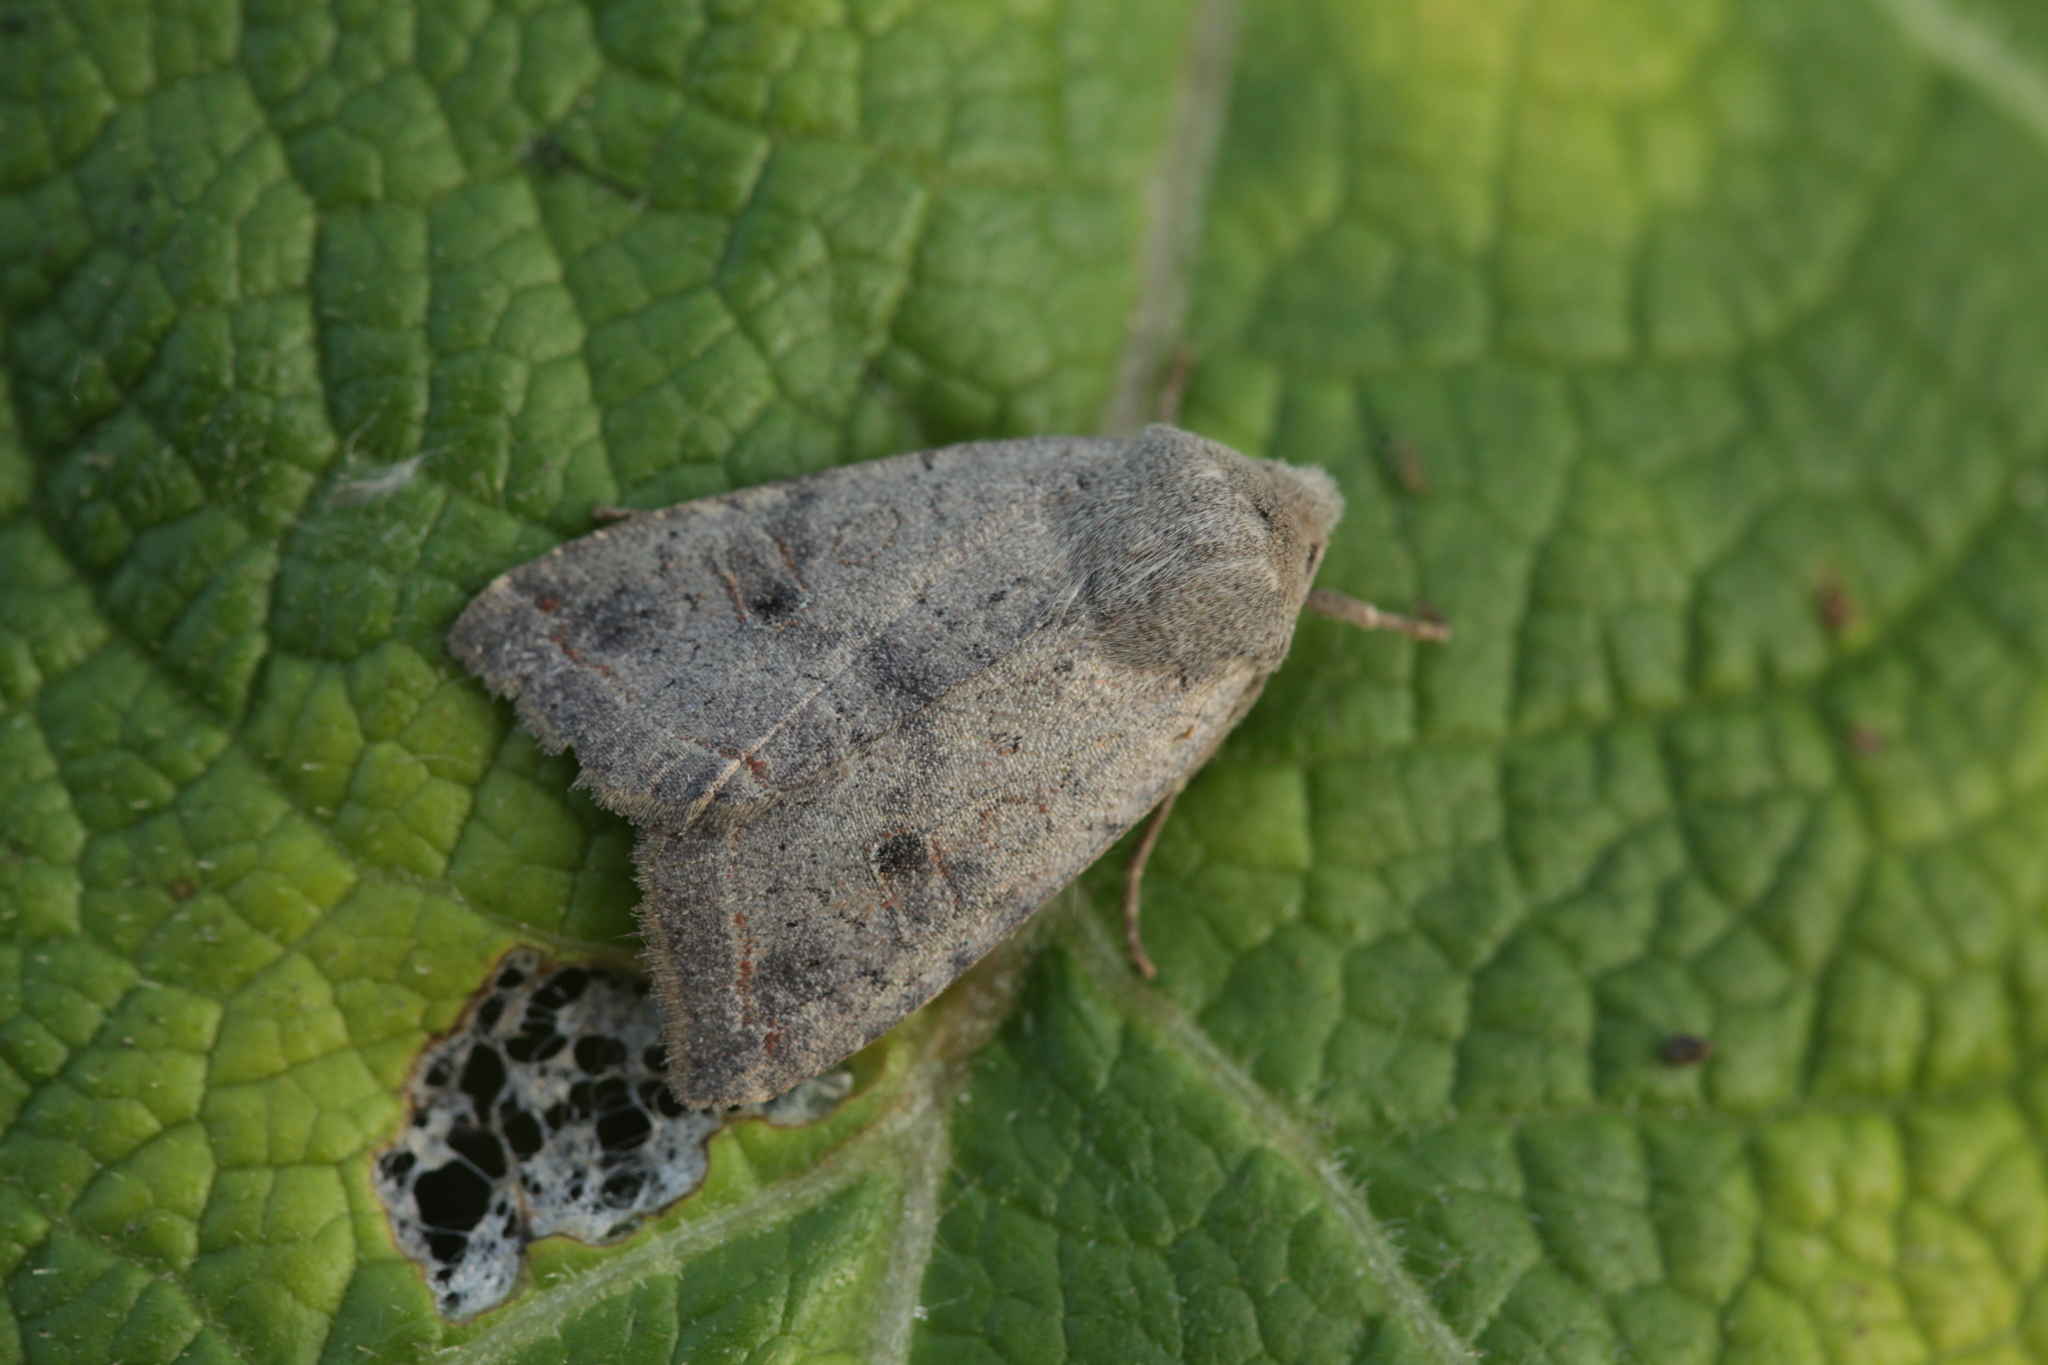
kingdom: Animalia
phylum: Arthropoda
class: Insecta
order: Lepidoptera
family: Noctuidae
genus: Agrochola
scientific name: Agrochola lota
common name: Red-line quaker
